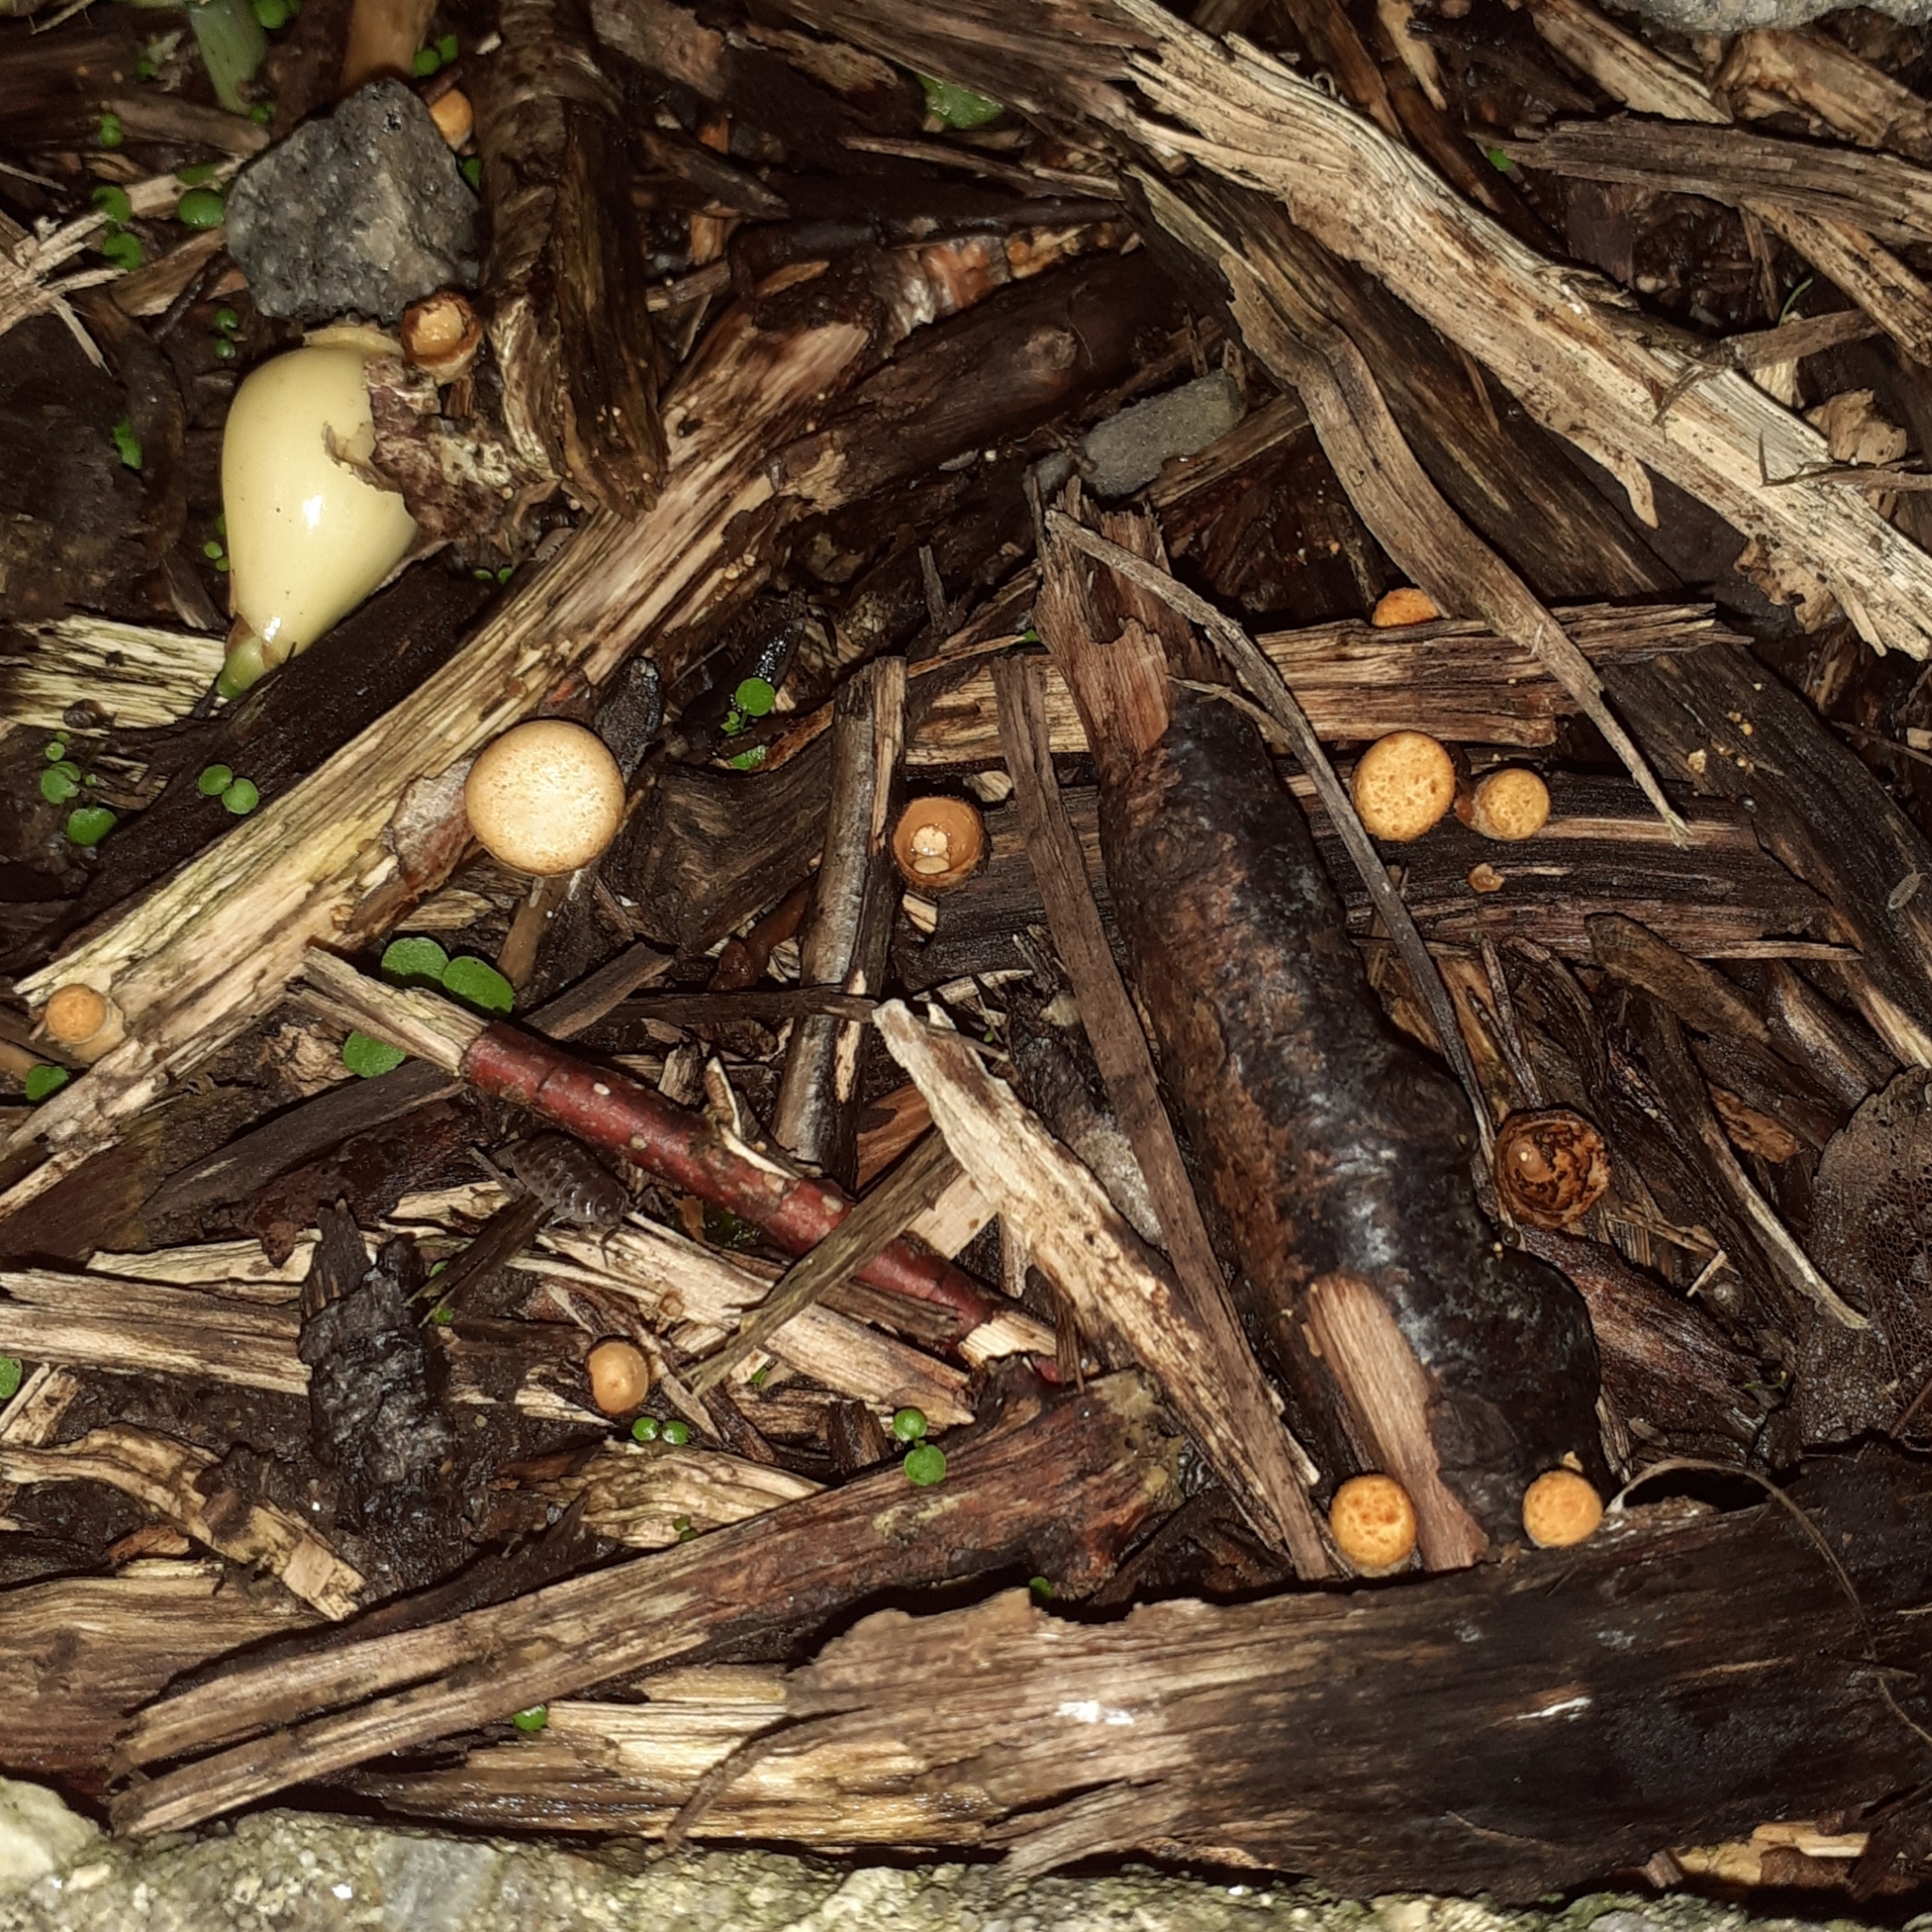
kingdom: Fungi
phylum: Basidiomycota
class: Agaricomycetes
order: Agaricales
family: Nidulariaceae
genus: Crucibulum
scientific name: Crucibulum laeve
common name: Common bird's nest
